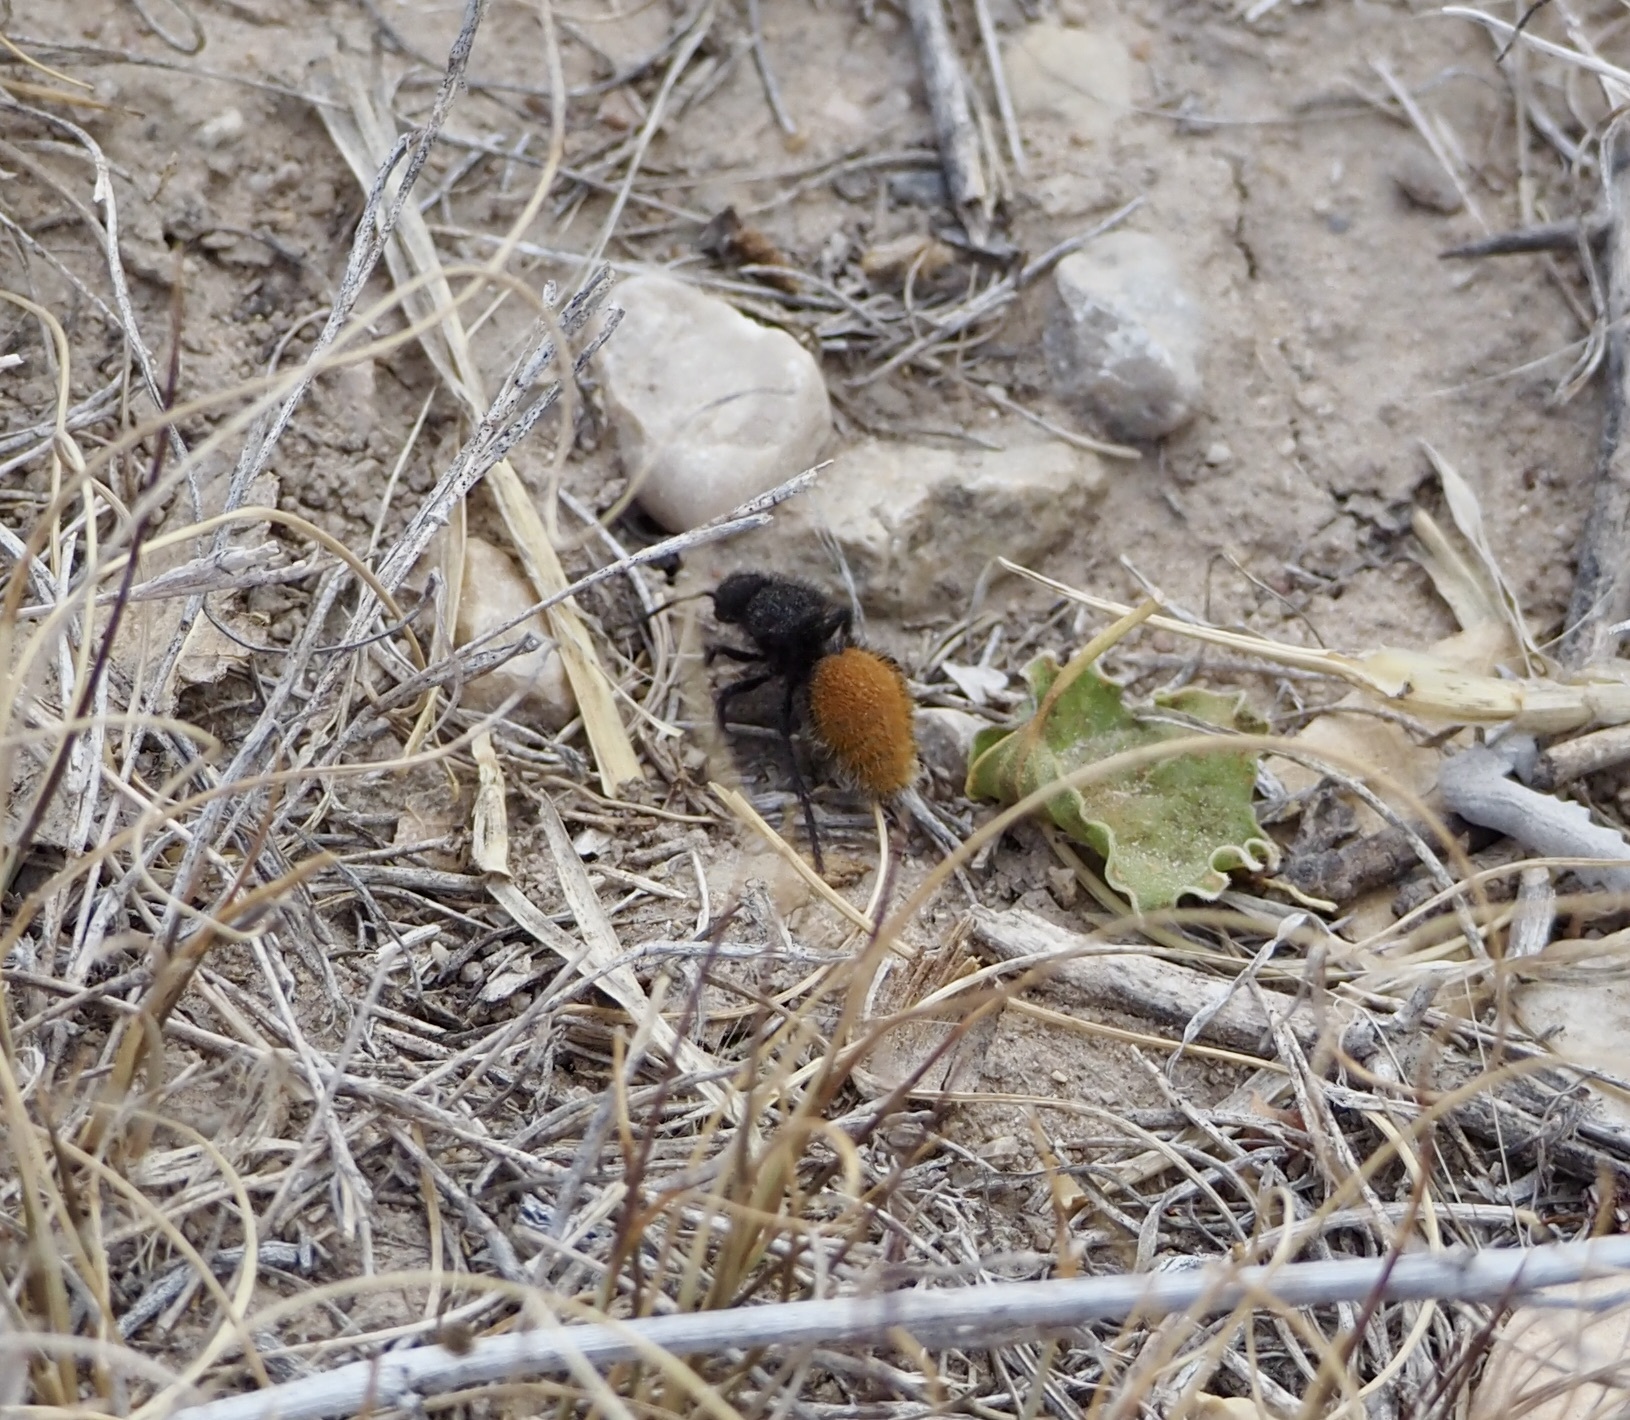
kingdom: Animalia
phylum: Arthropoda
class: Insecta
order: Hymenoptera
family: Mutillidae
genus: Dasymutilla
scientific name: Dasymutilla vestita
